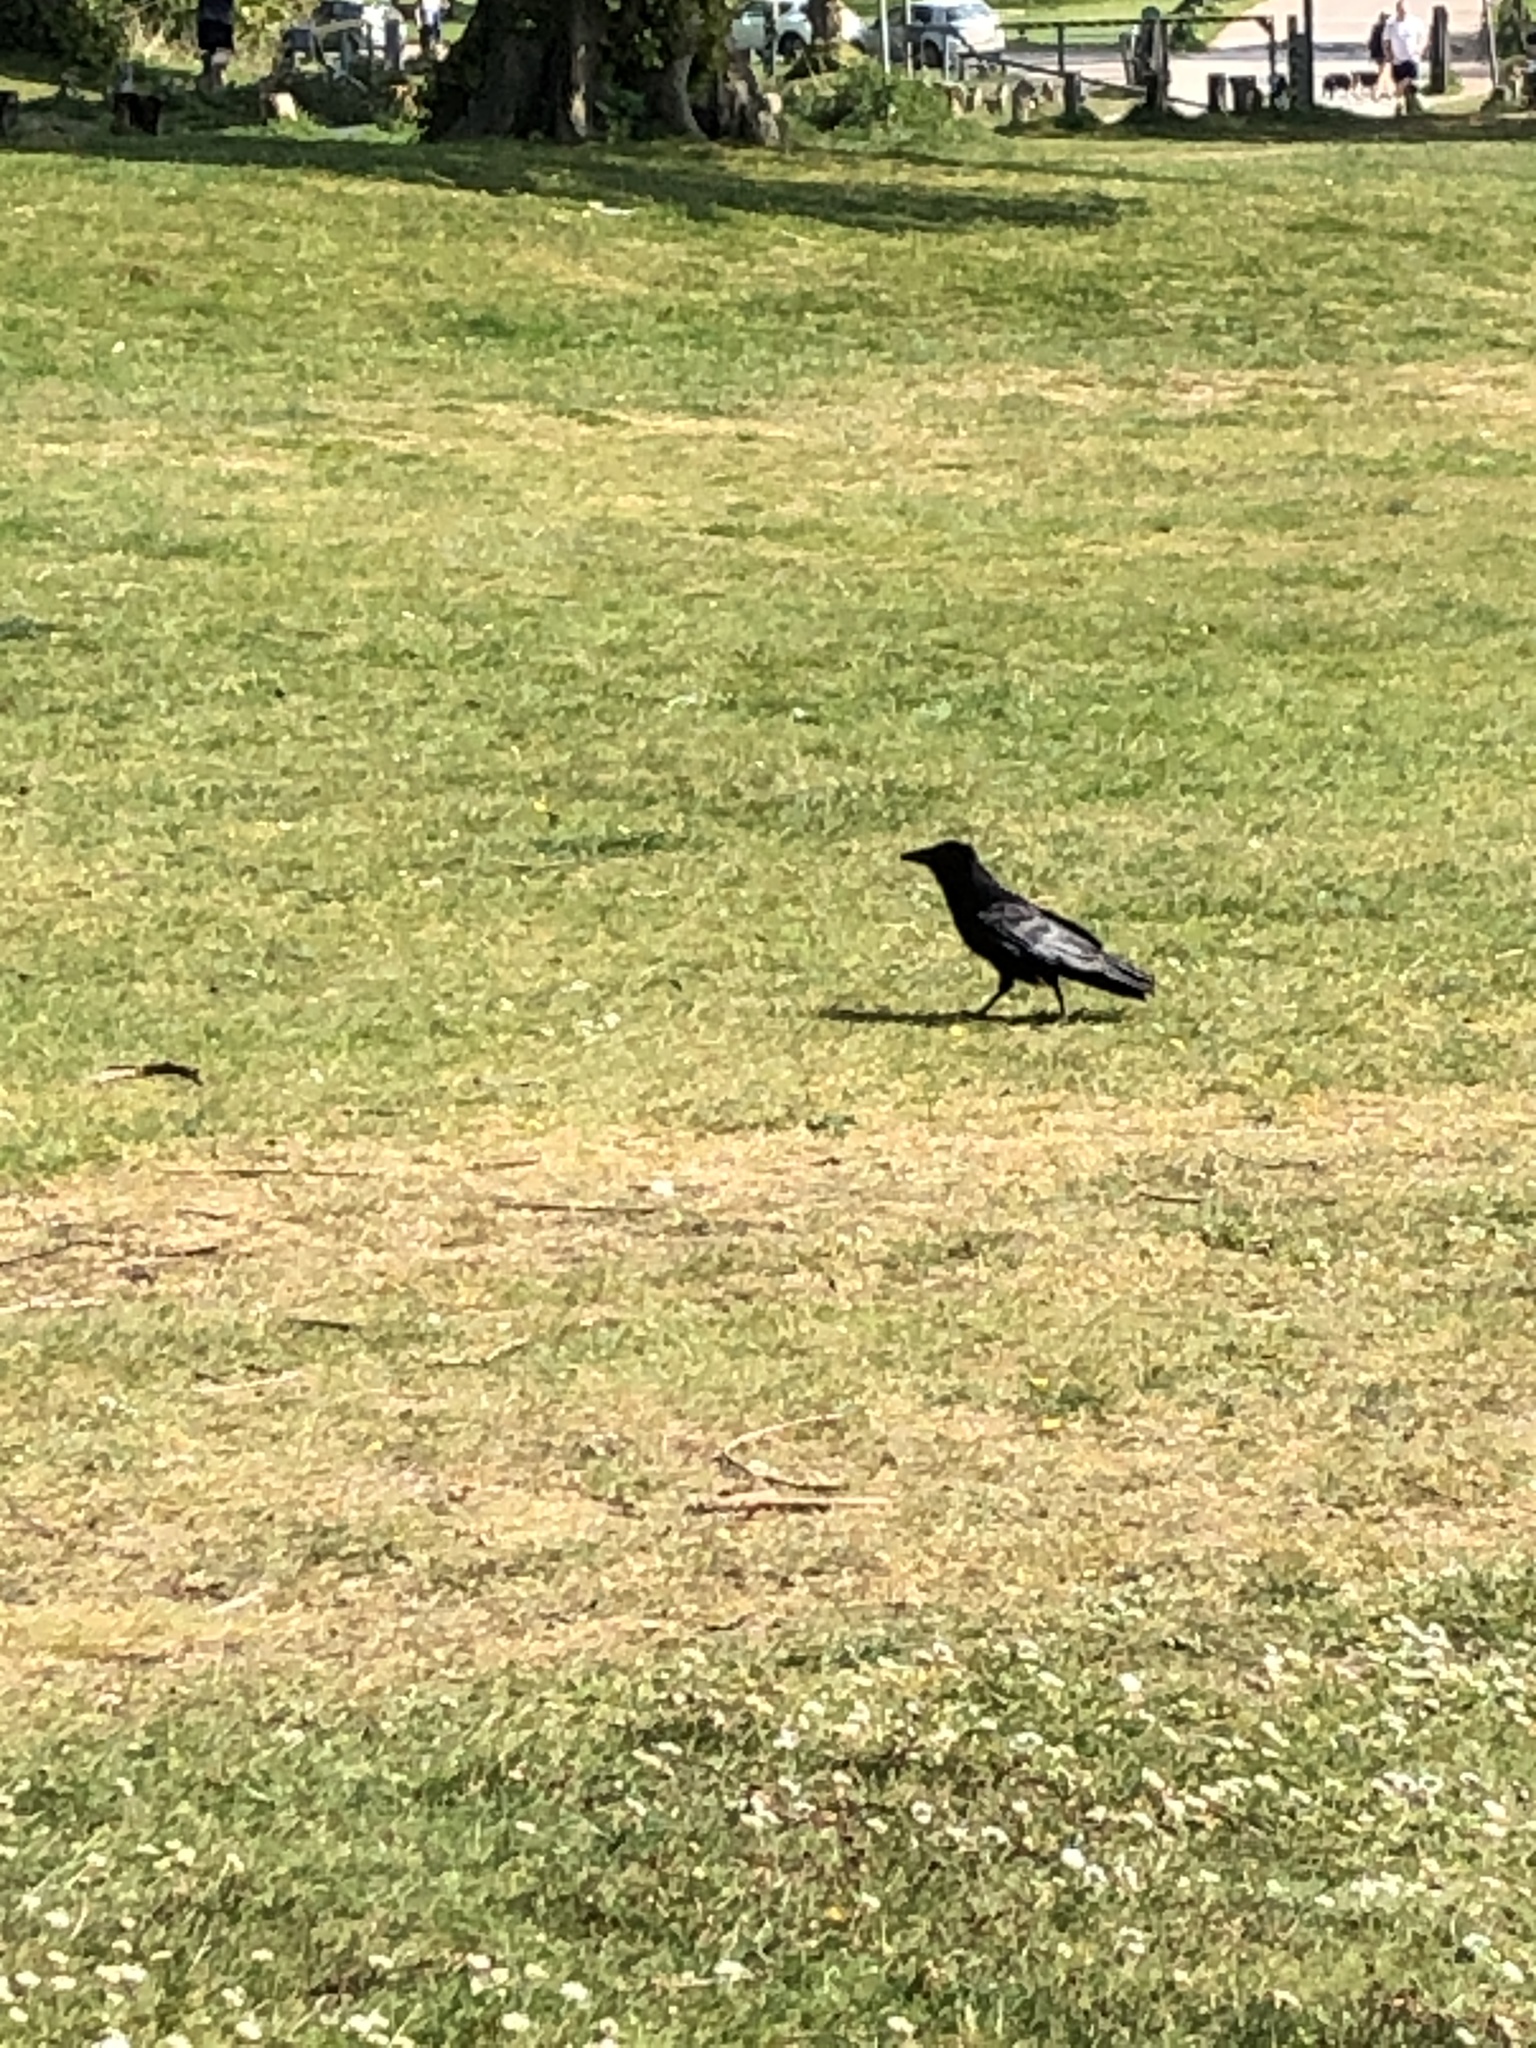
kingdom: Animalia
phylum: Chordata
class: Aves
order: Passeriformes
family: Corvidae
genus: Corvus
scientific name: Corvus corone
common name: Carrion crow
